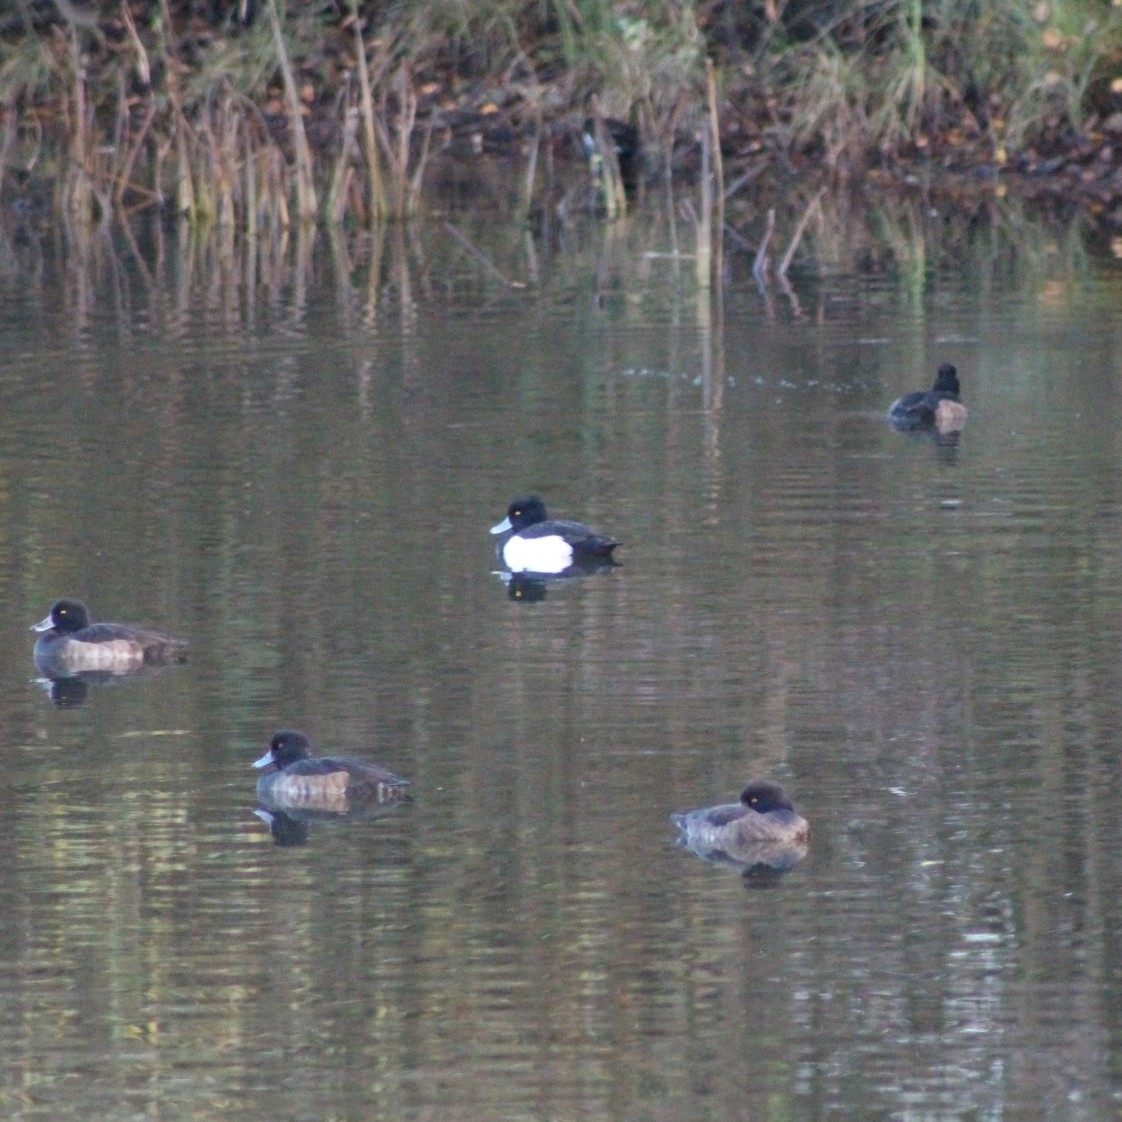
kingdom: Animalia
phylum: Chordata
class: Aves
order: Anseriformes
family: Anatidae
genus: Aythya
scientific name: Aythya fuligula
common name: Tufted duck
